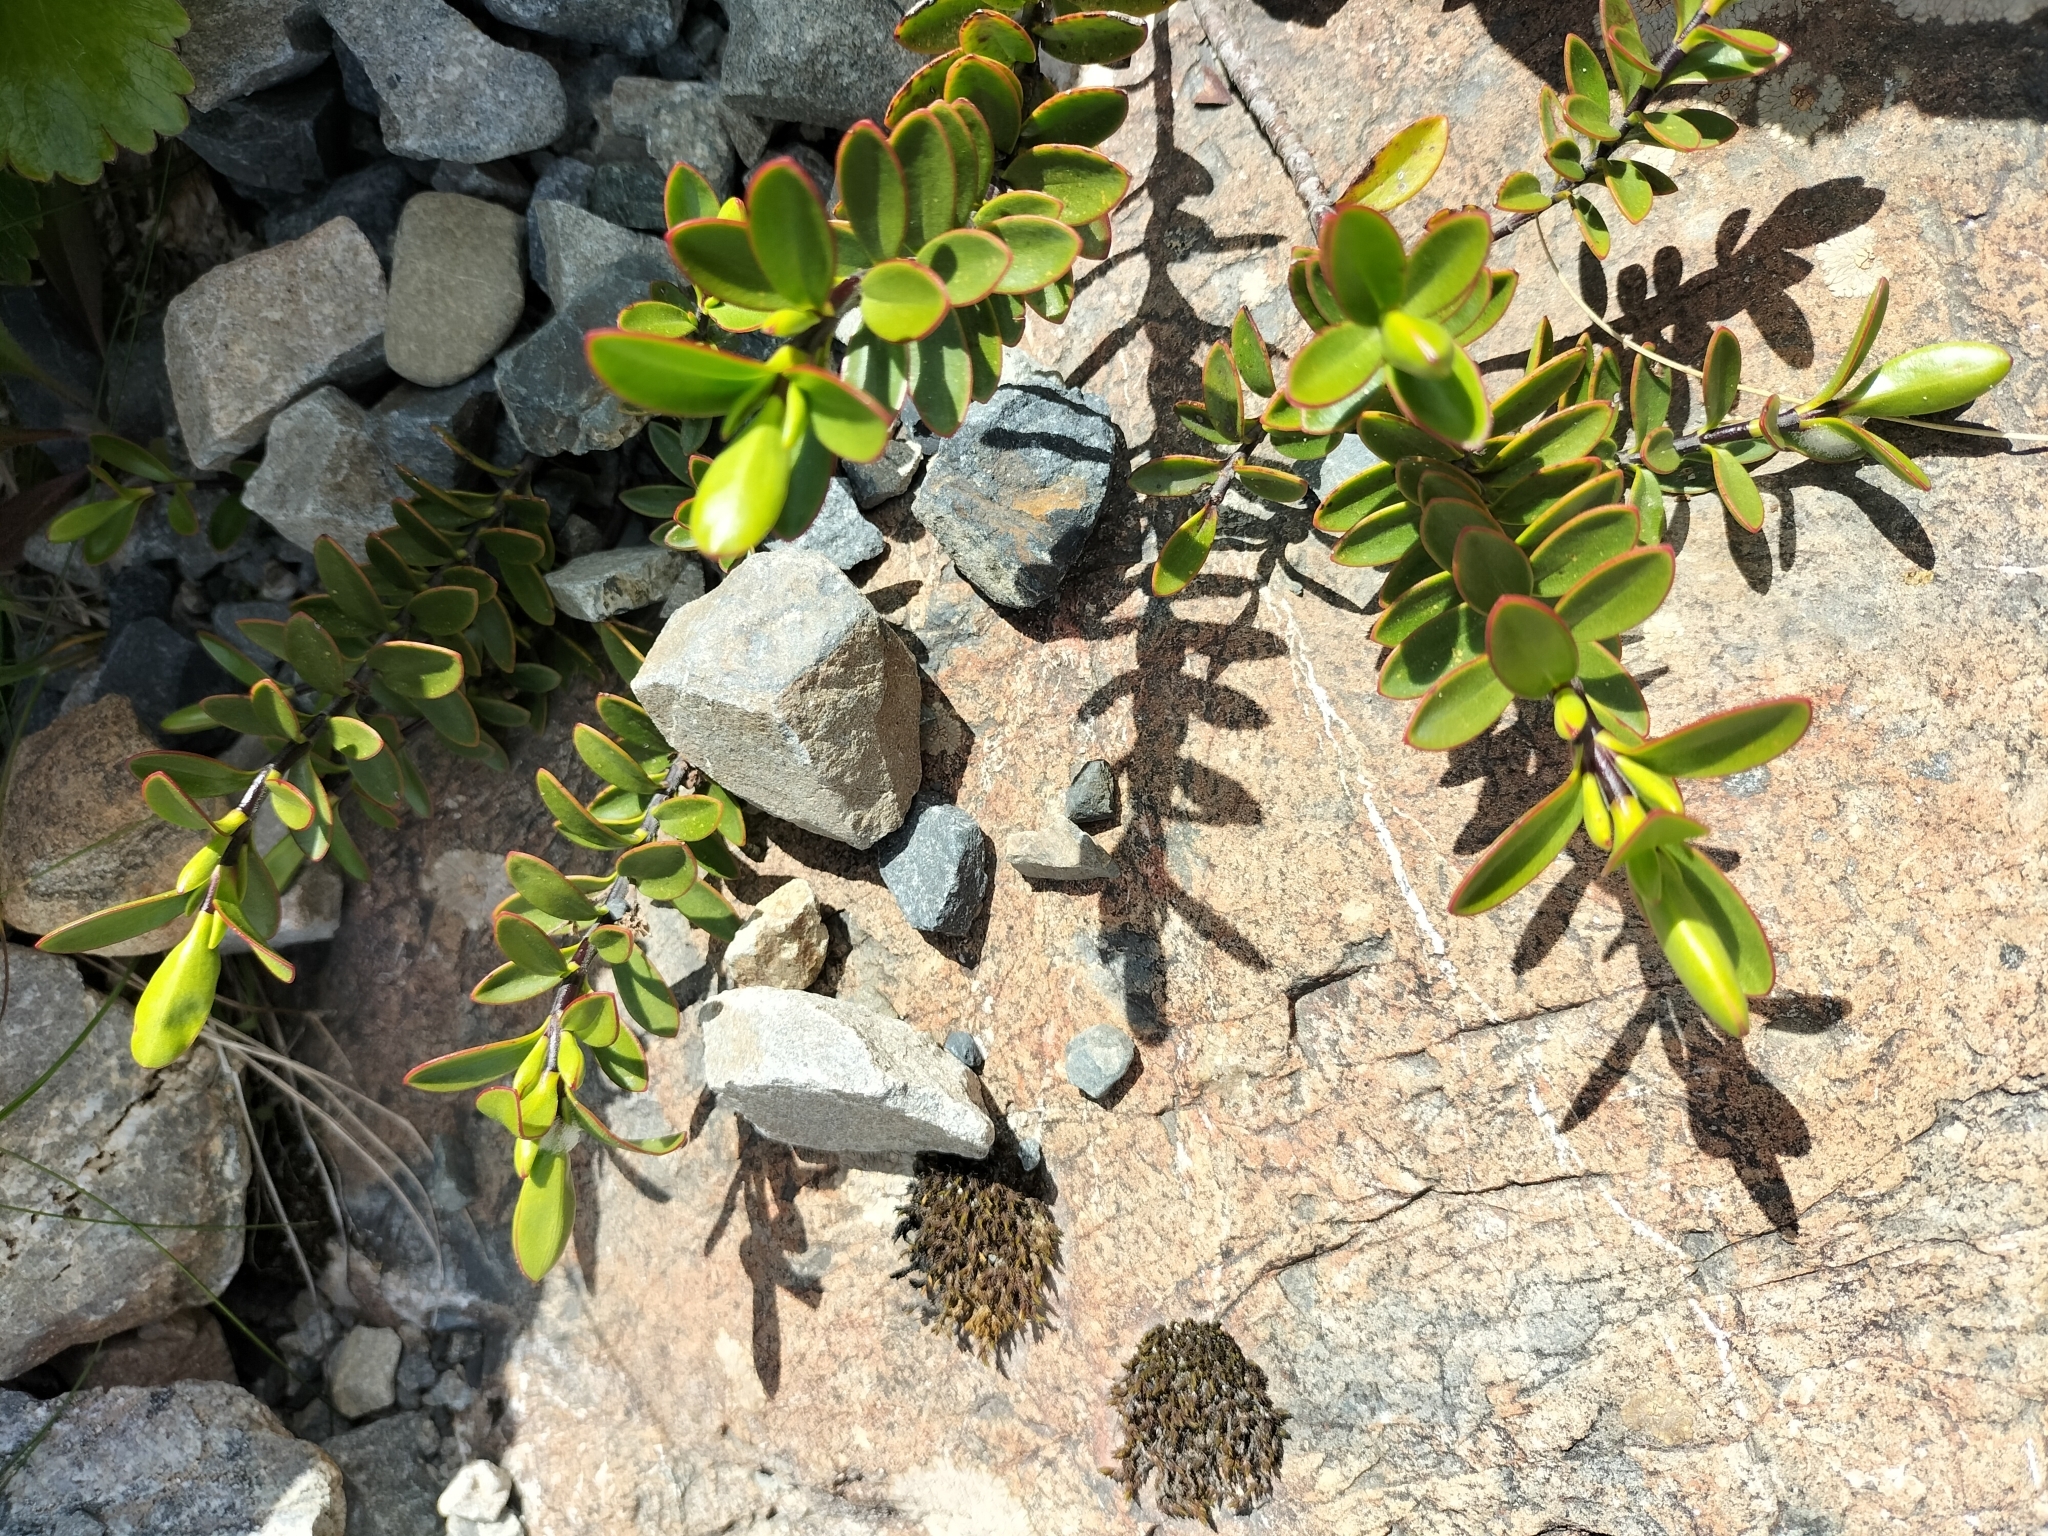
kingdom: Plantae
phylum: Tracheophyta
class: Magnoliopsida
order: Lamiales
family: Plantaginaceae
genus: Veronica
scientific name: Veronica decumbens
